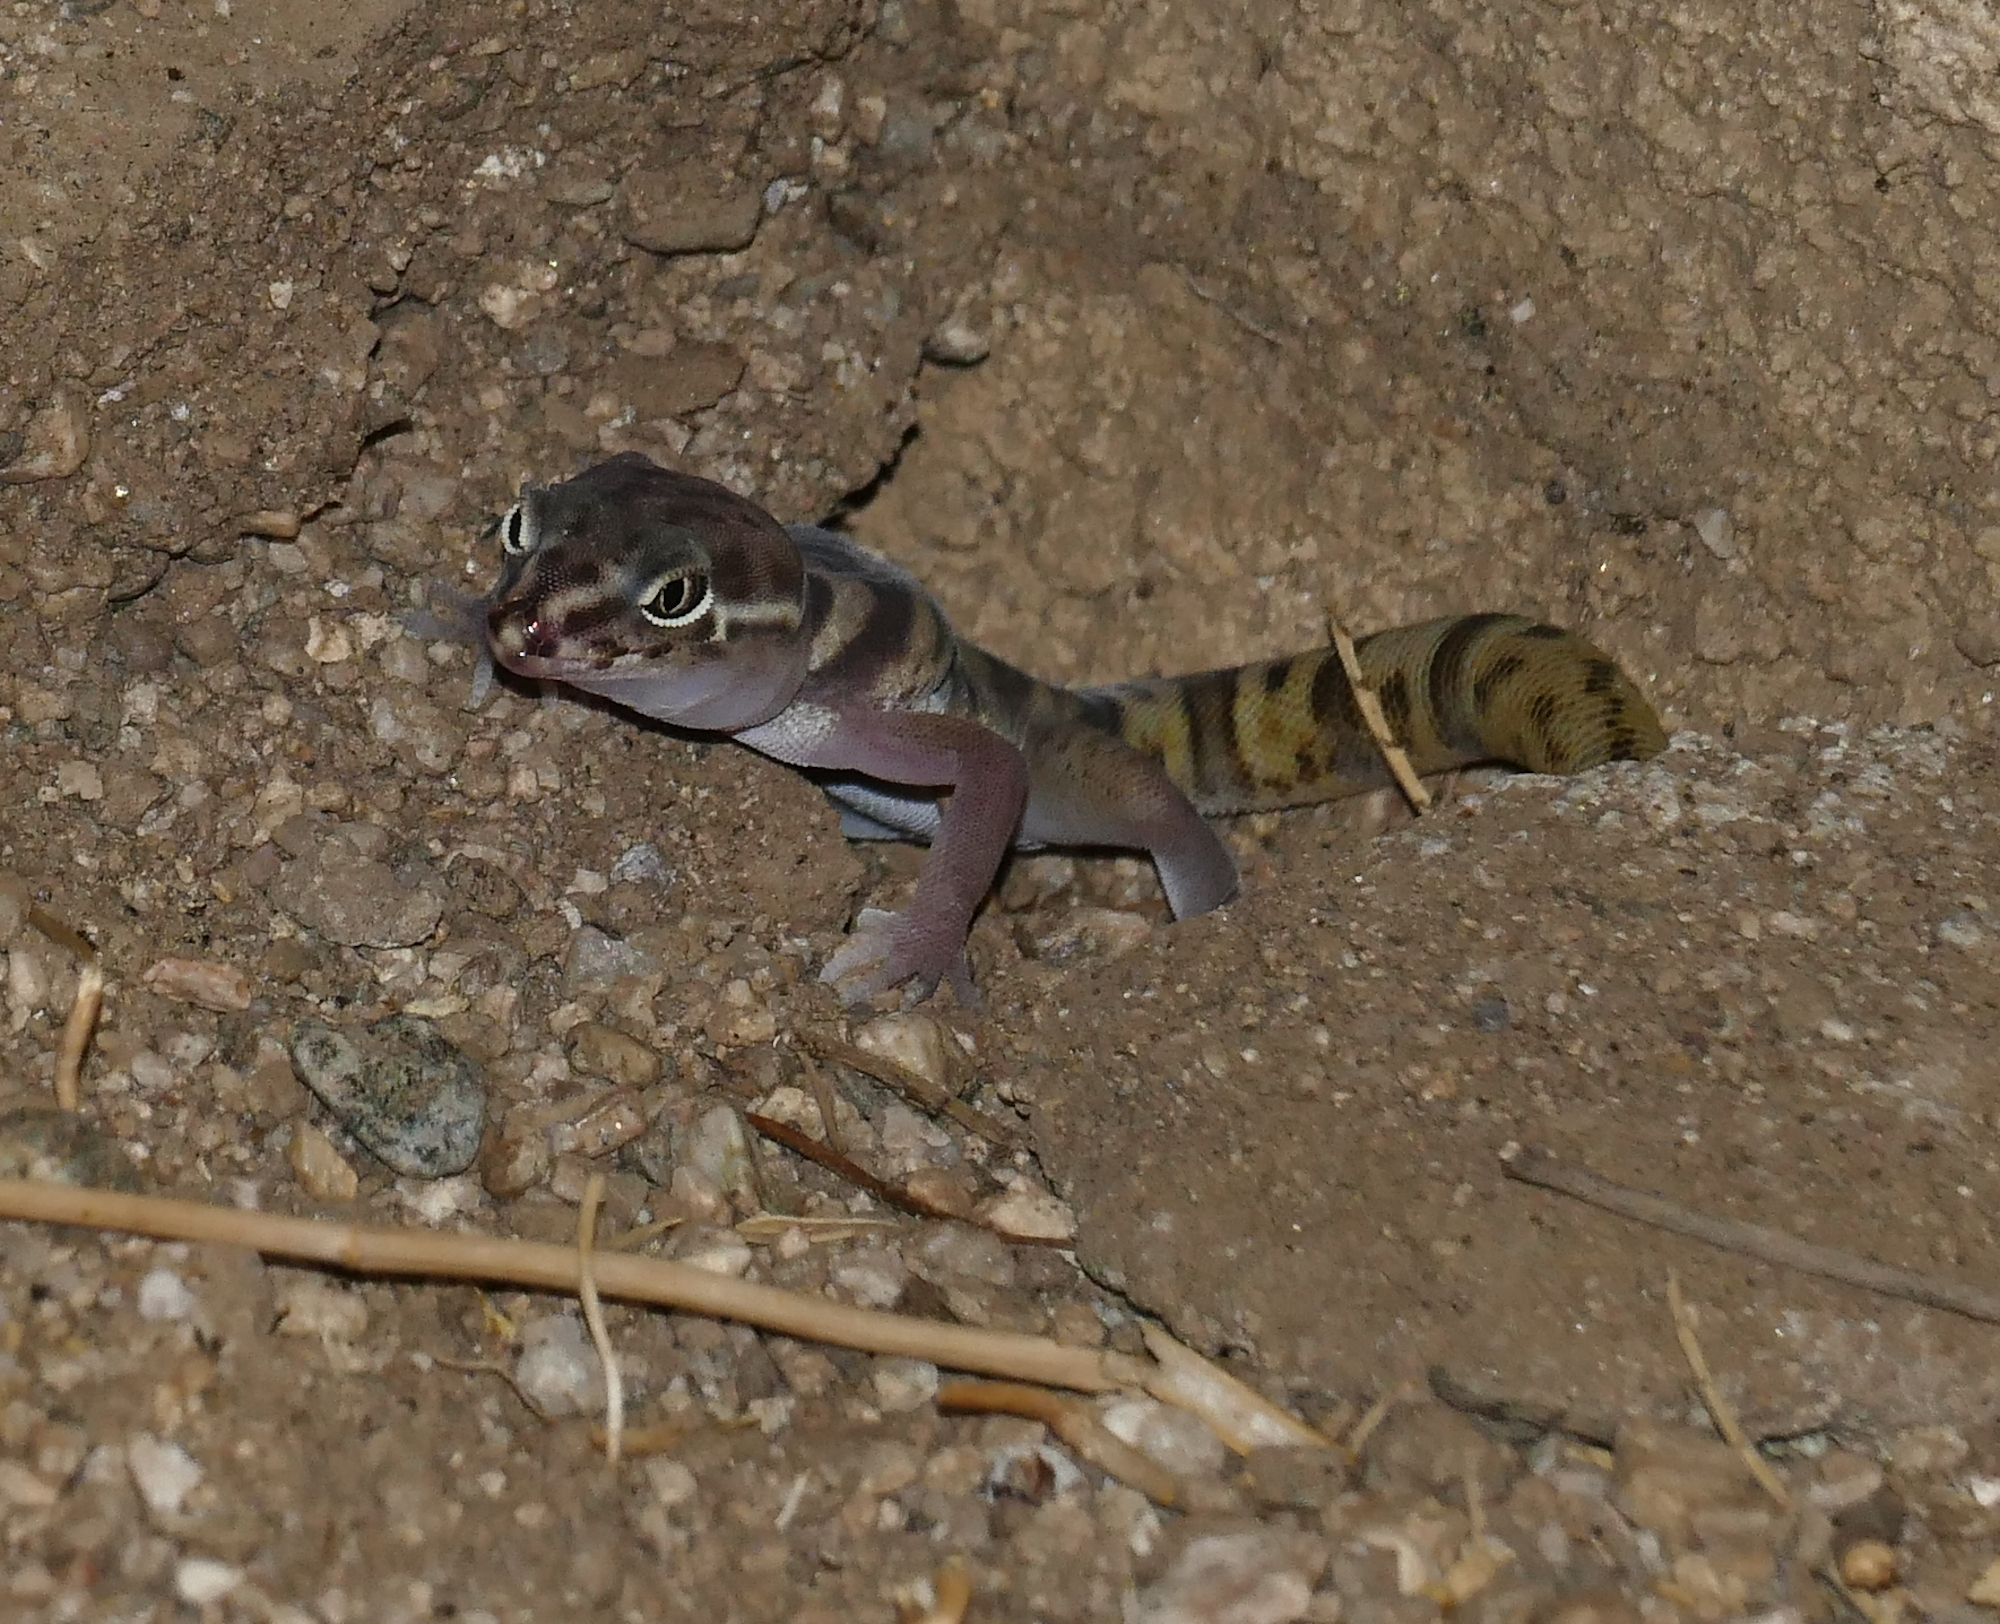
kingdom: Animalia
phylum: Chordata
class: Squamata
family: Eublepharidae
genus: Coleonyx
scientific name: Coleonyx variegatus
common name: Western banded gecko
